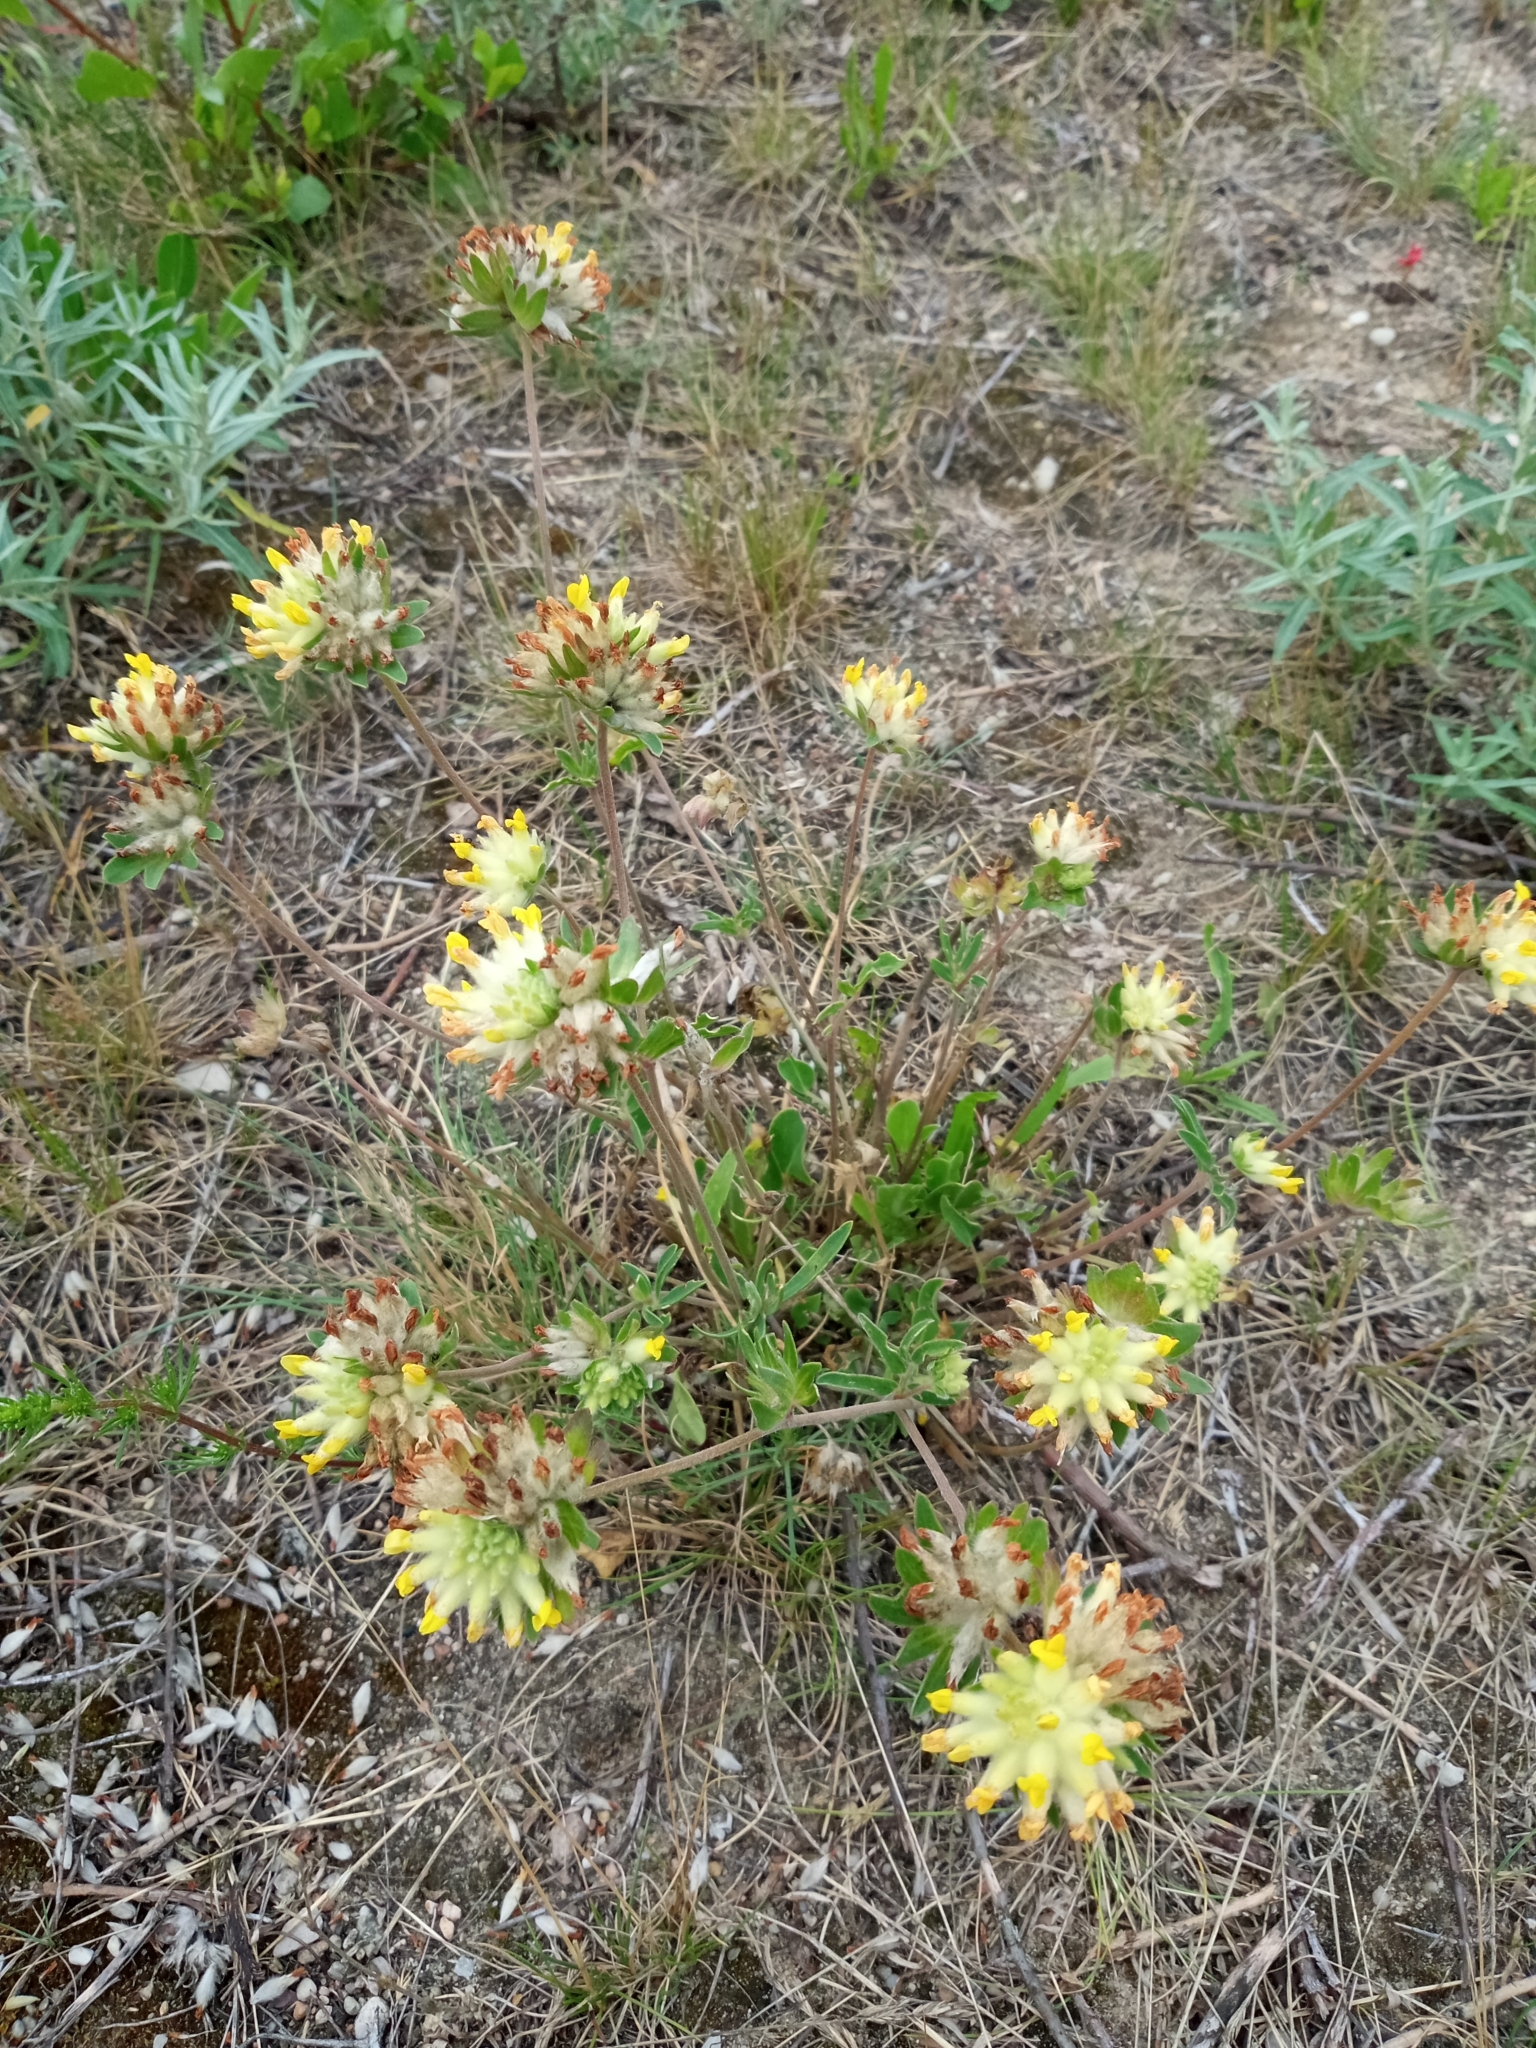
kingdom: Plantae
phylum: Tracheophyta
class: Magnoliopsida
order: Fabales
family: Fabaceae
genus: Anthyllis
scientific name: Anthyllis vulneraria
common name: Kidney vetch
